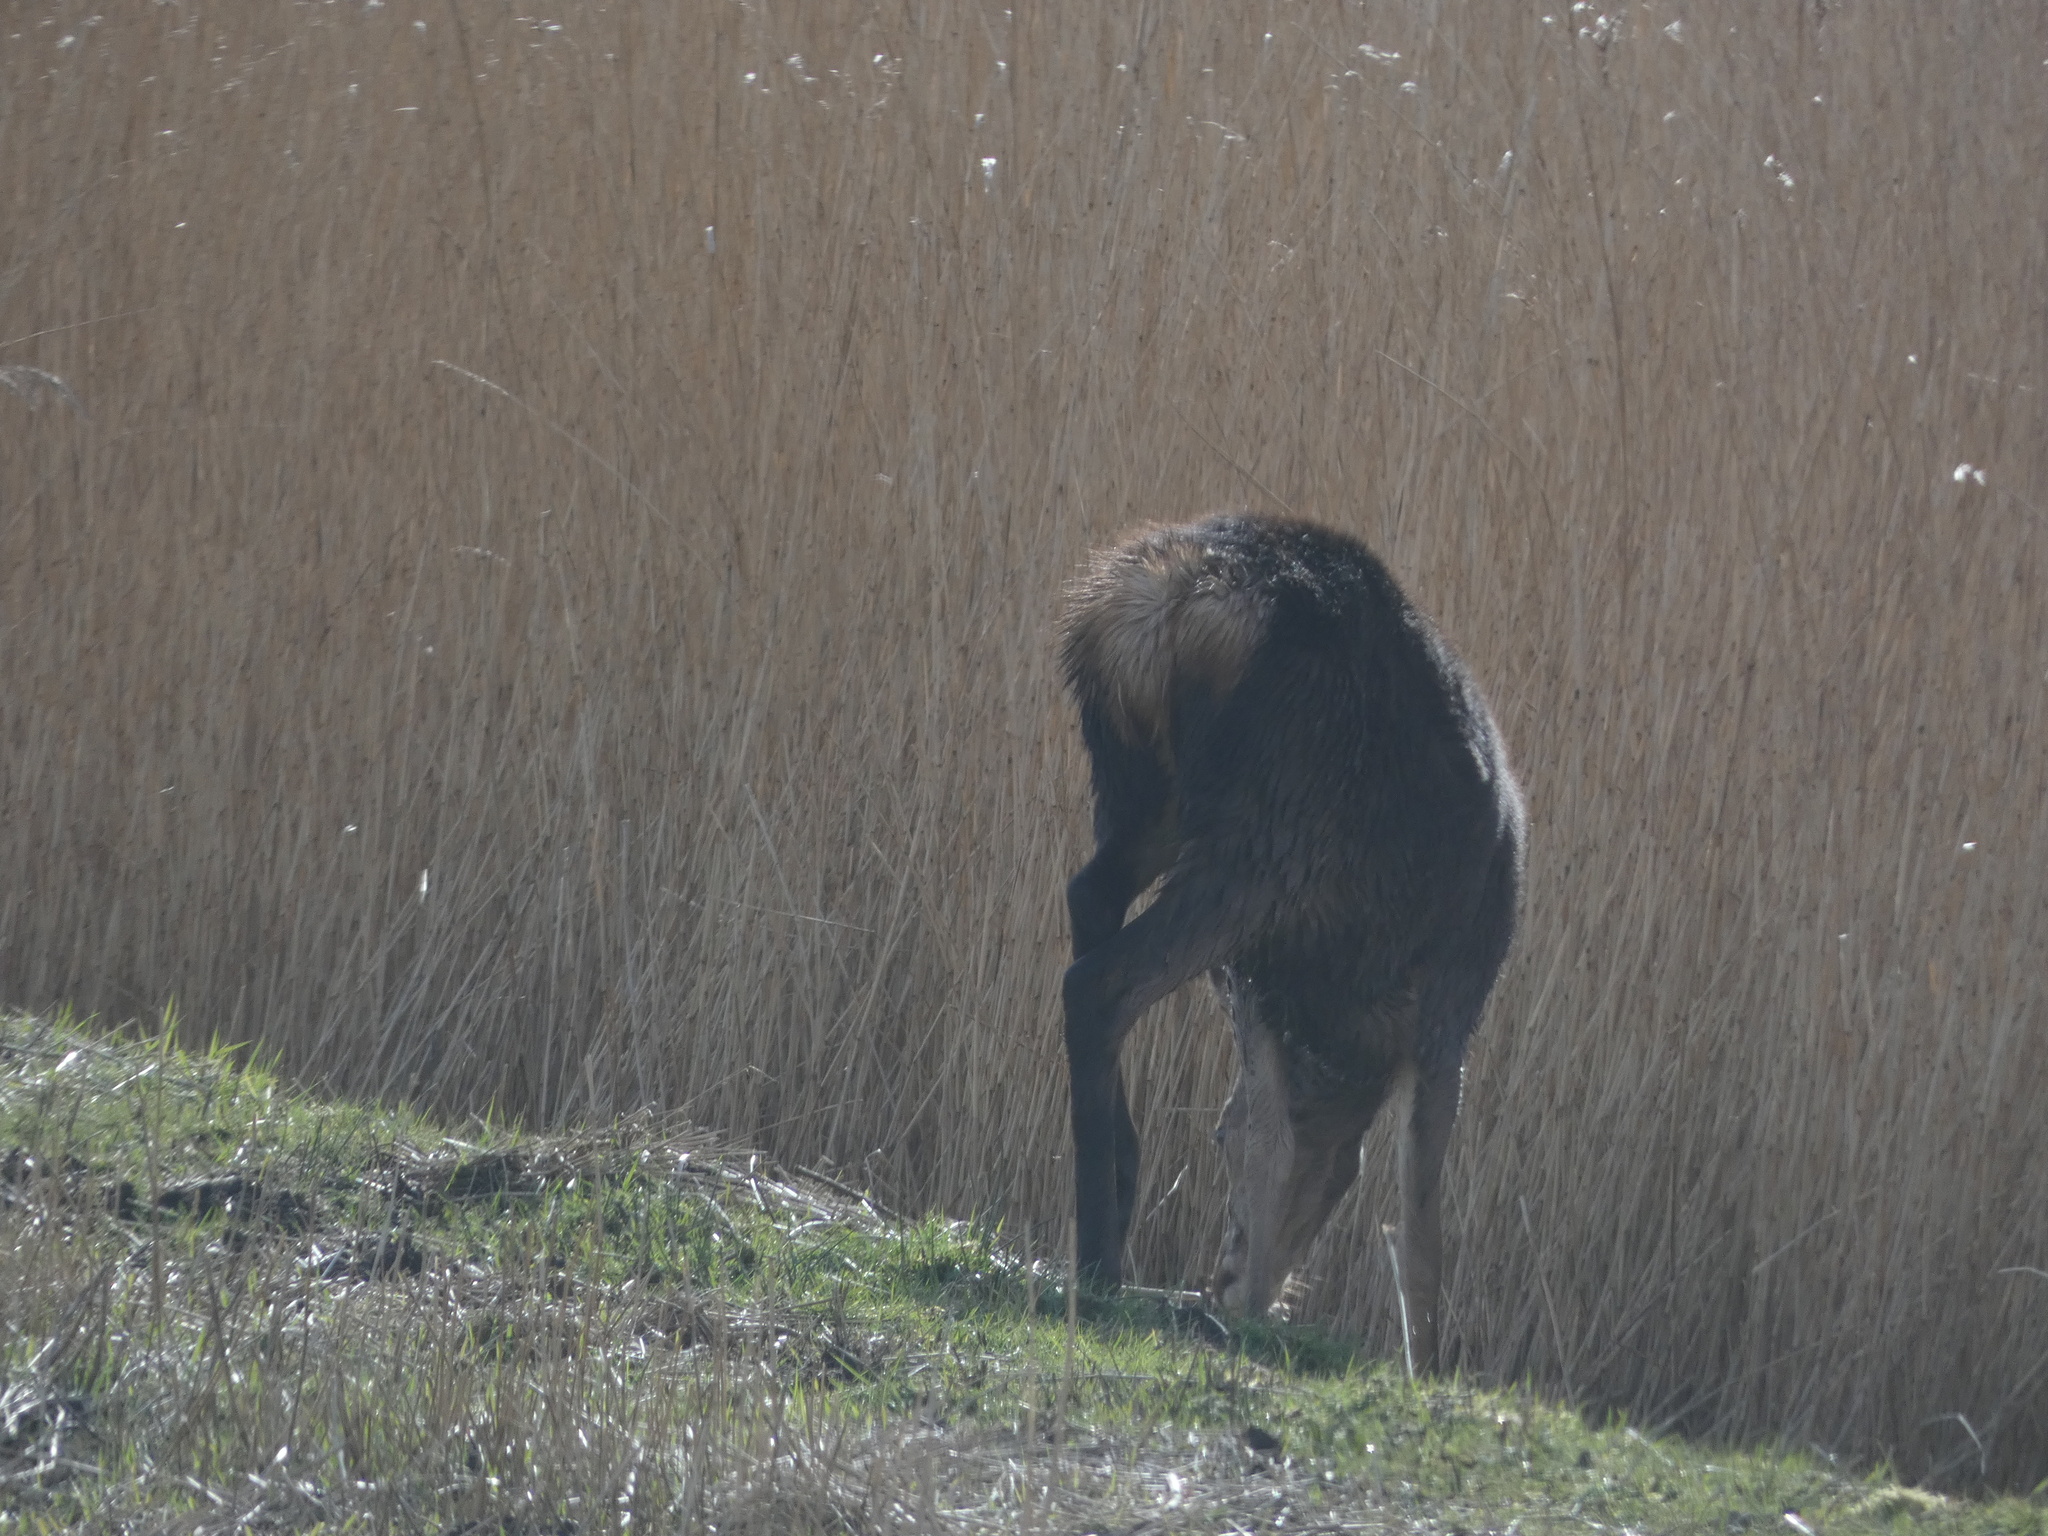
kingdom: Animalia
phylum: Chordata
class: Mammalia
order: Artiodactyla
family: Cervidae
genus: Cervus
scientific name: Cervus elaphus
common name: Red deer
